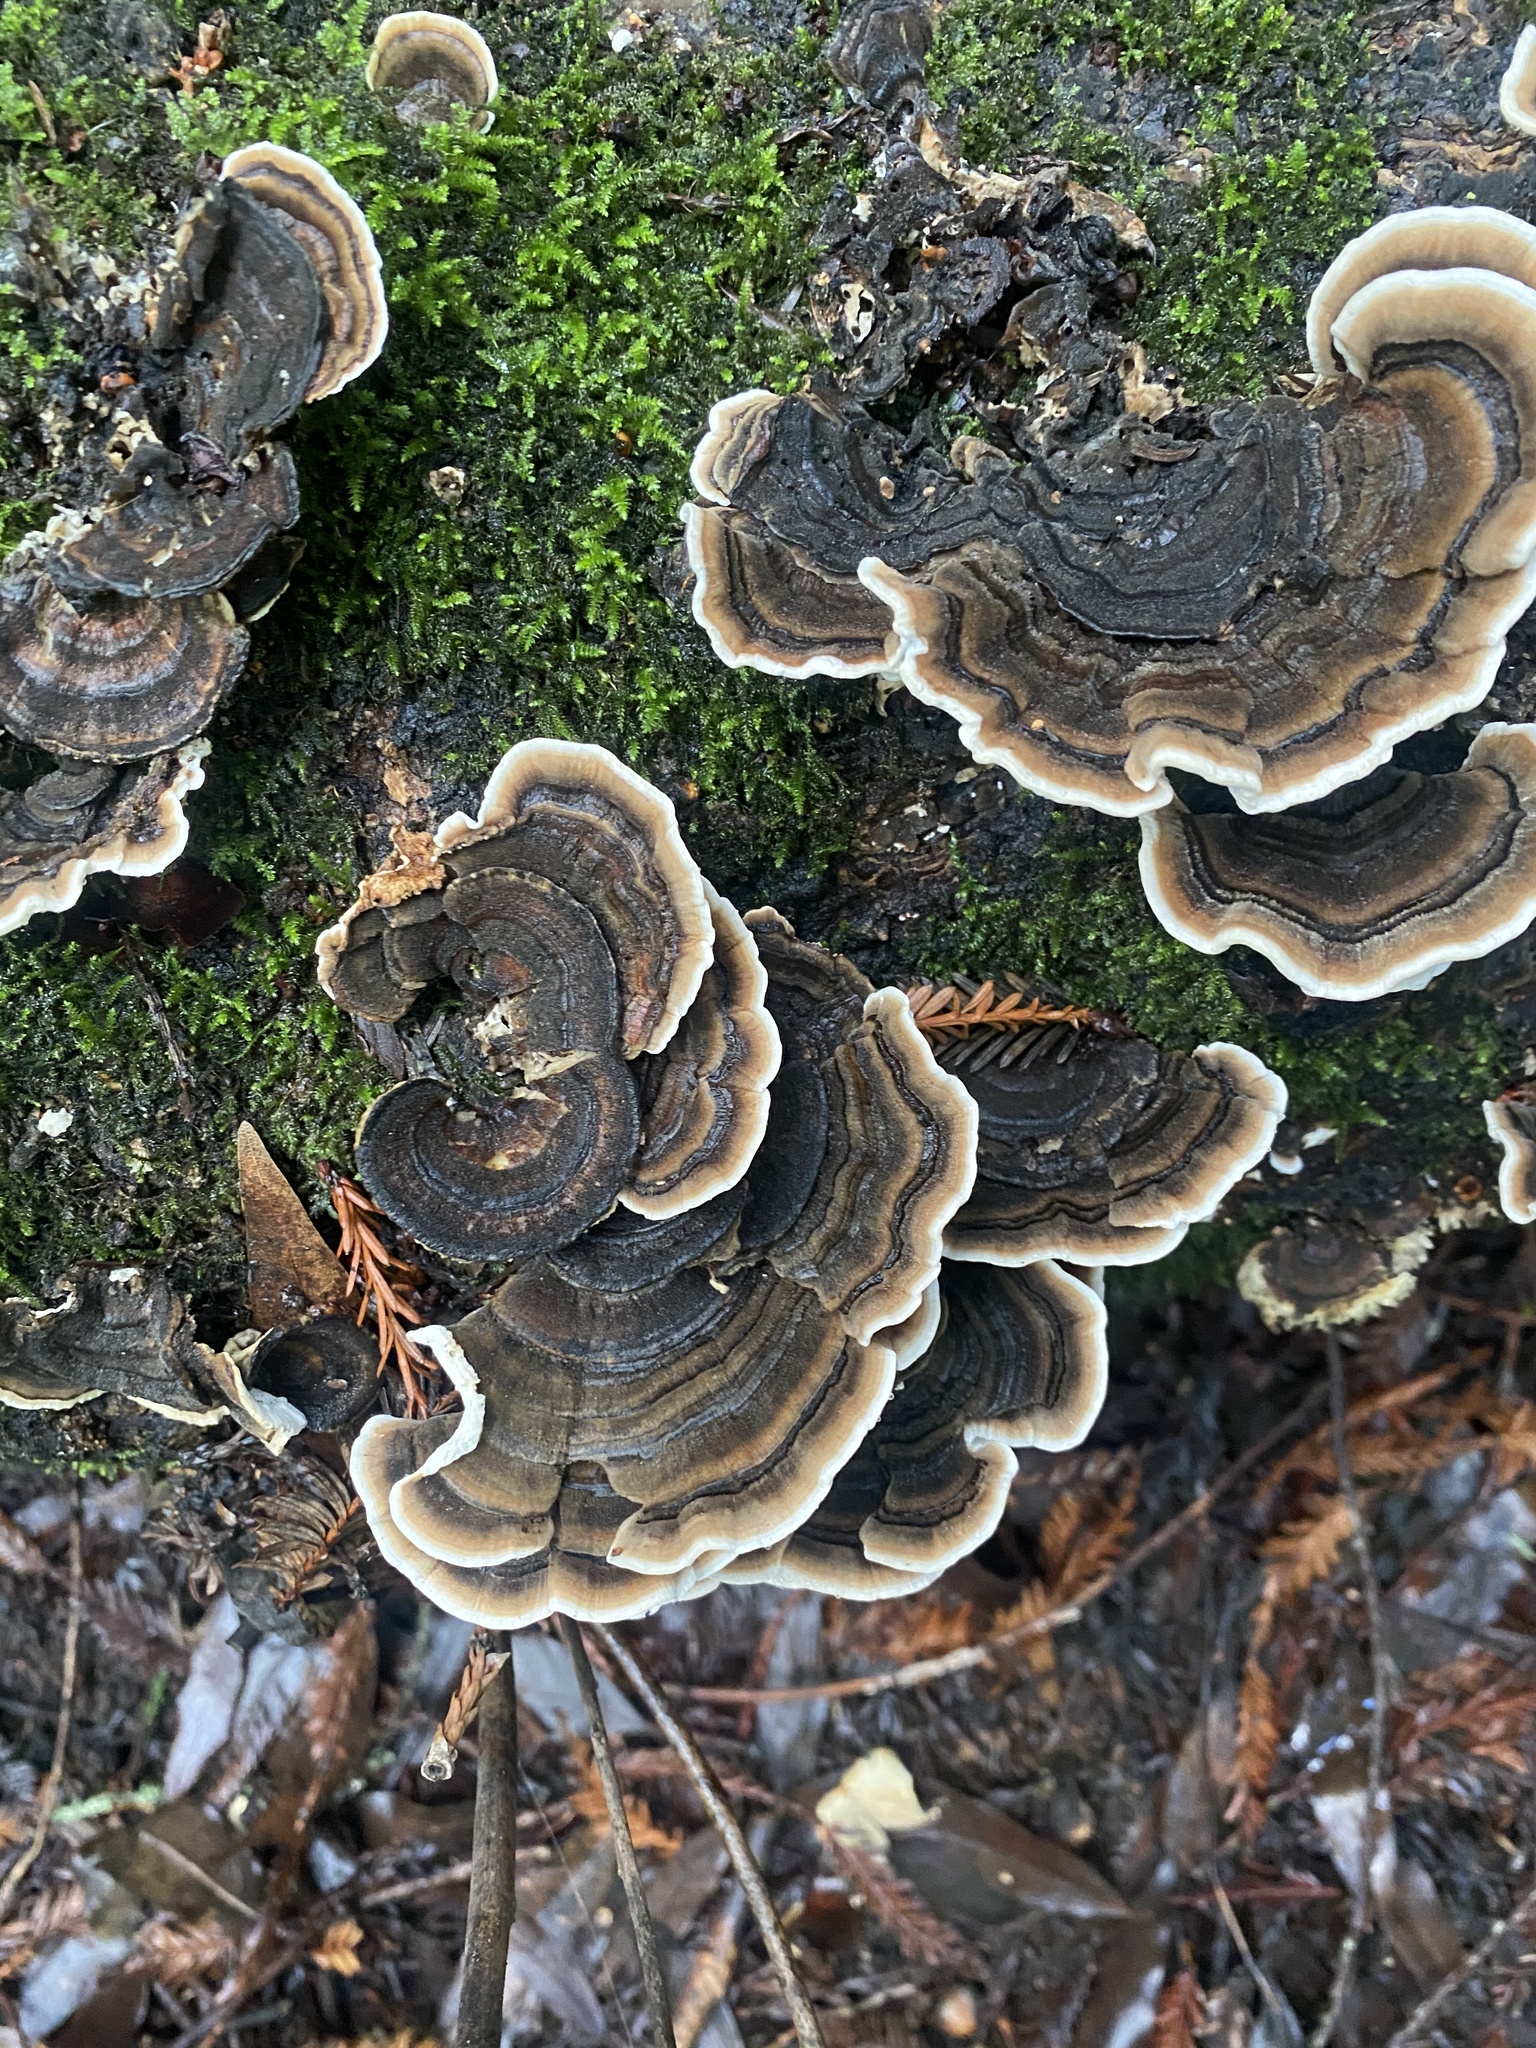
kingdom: Fungi
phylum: Basidiomycota
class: Agaricomycetes
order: Polyporales
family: Polyporaceae
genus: Trametes
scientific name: Trametes versicolor
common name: Turkeytail
